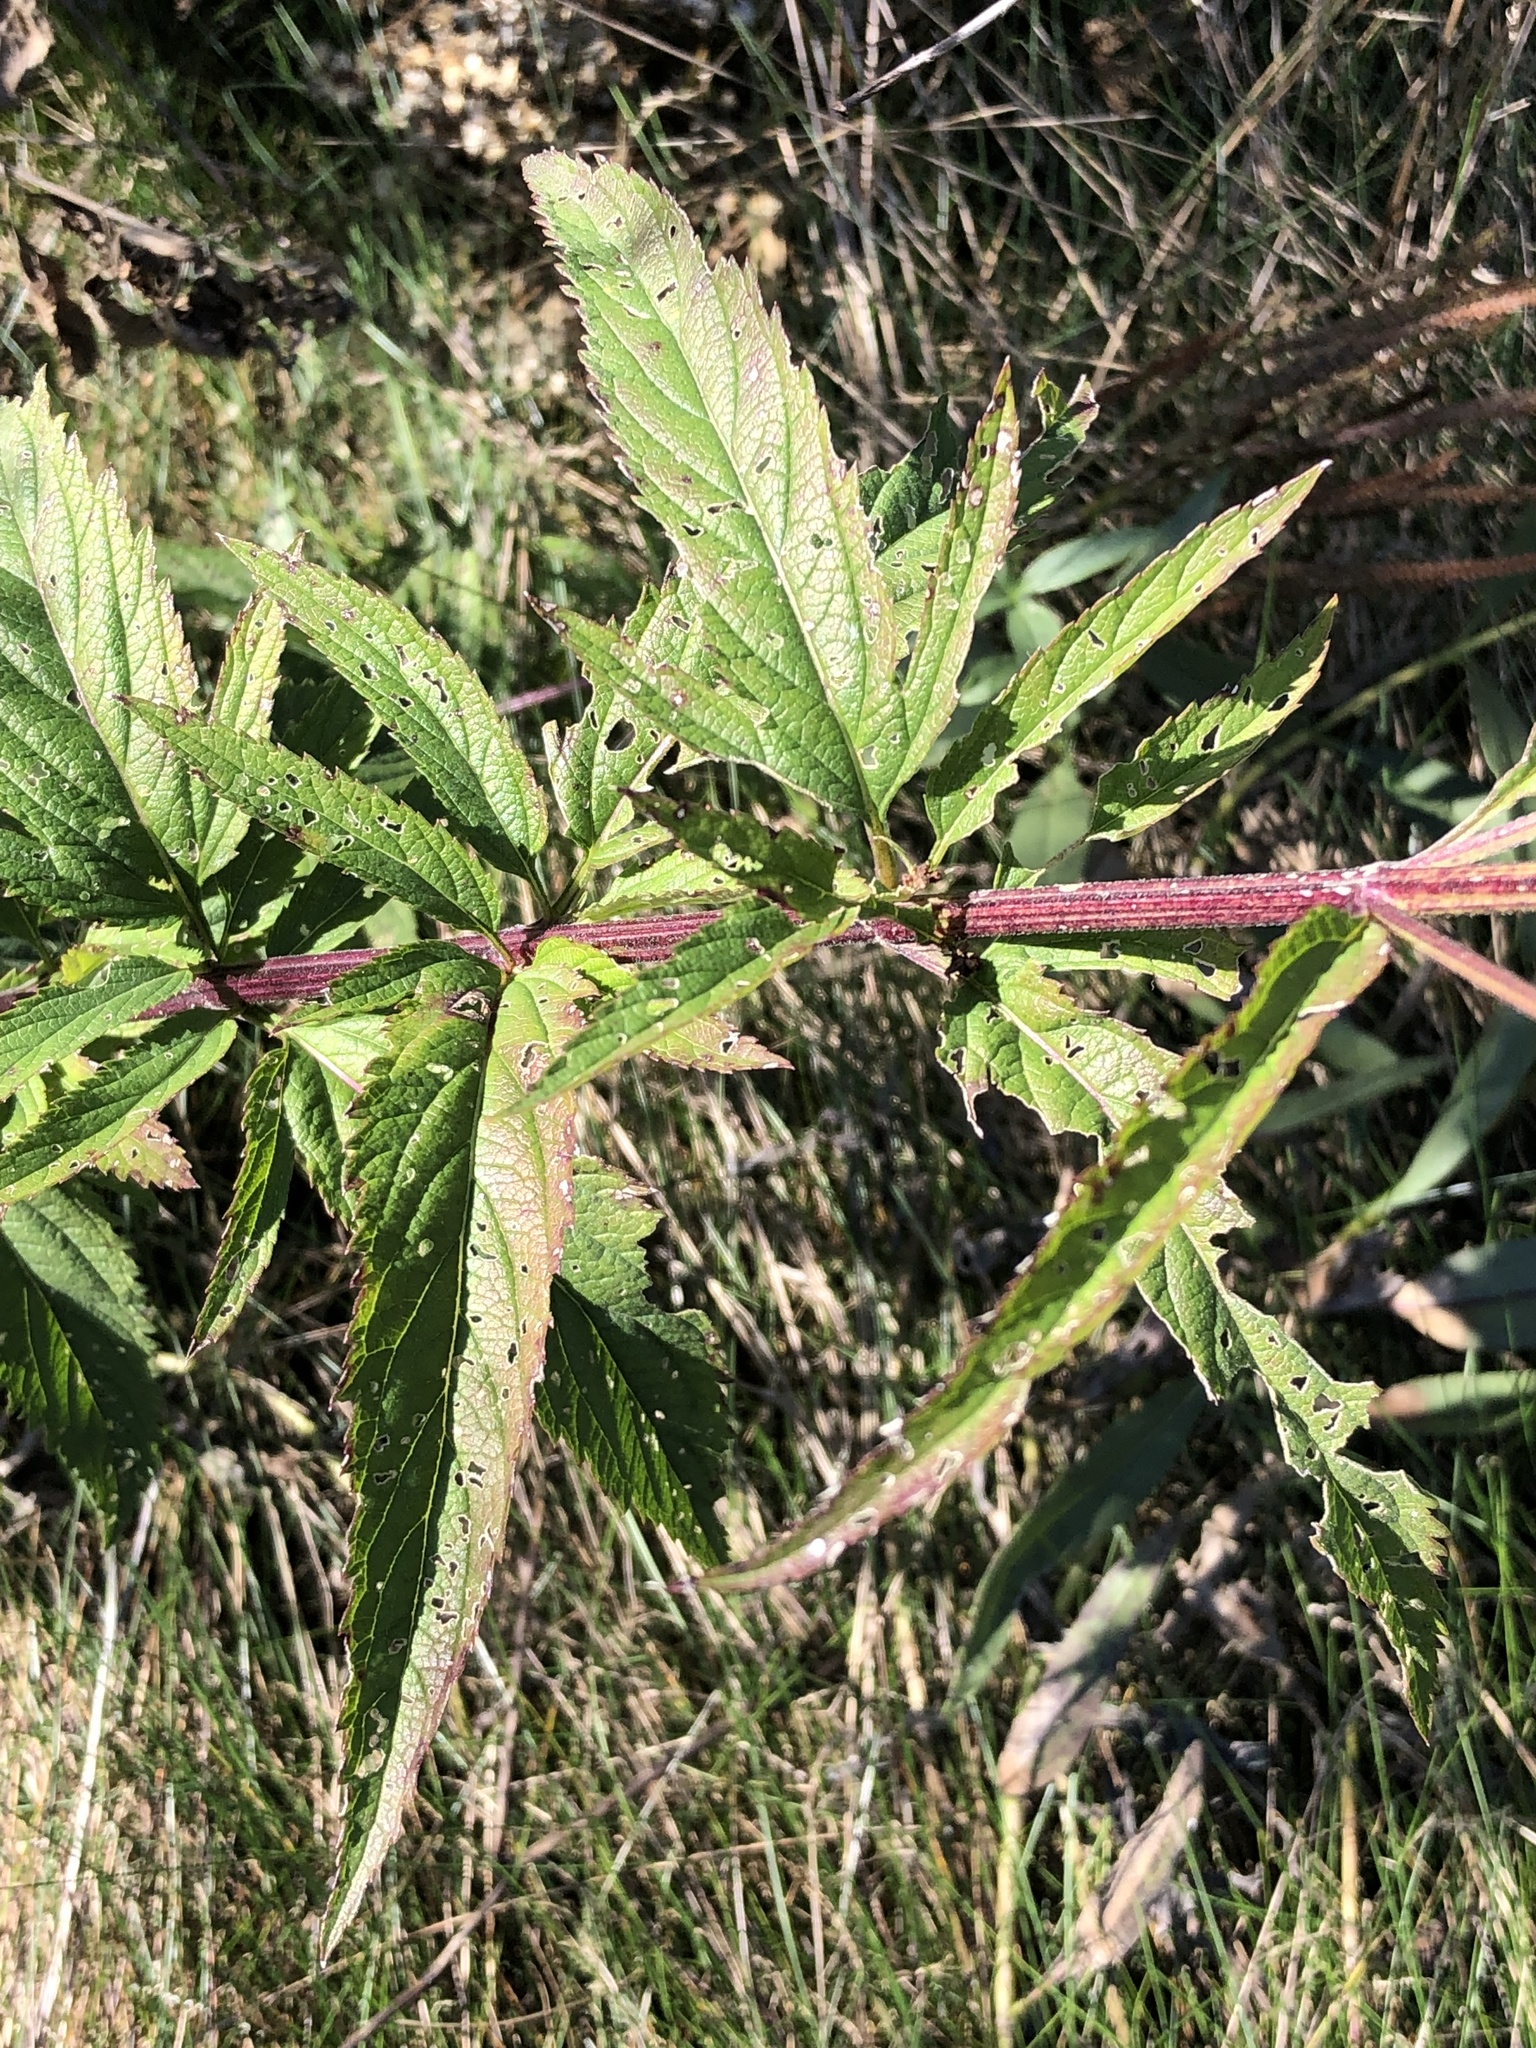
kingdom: Plantae
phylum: Tracheophyta
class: Magnoliopsida
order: Lamiales
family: Verbenaceae
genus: Verbena
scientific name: Verbena hastata
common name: American blue vervain
